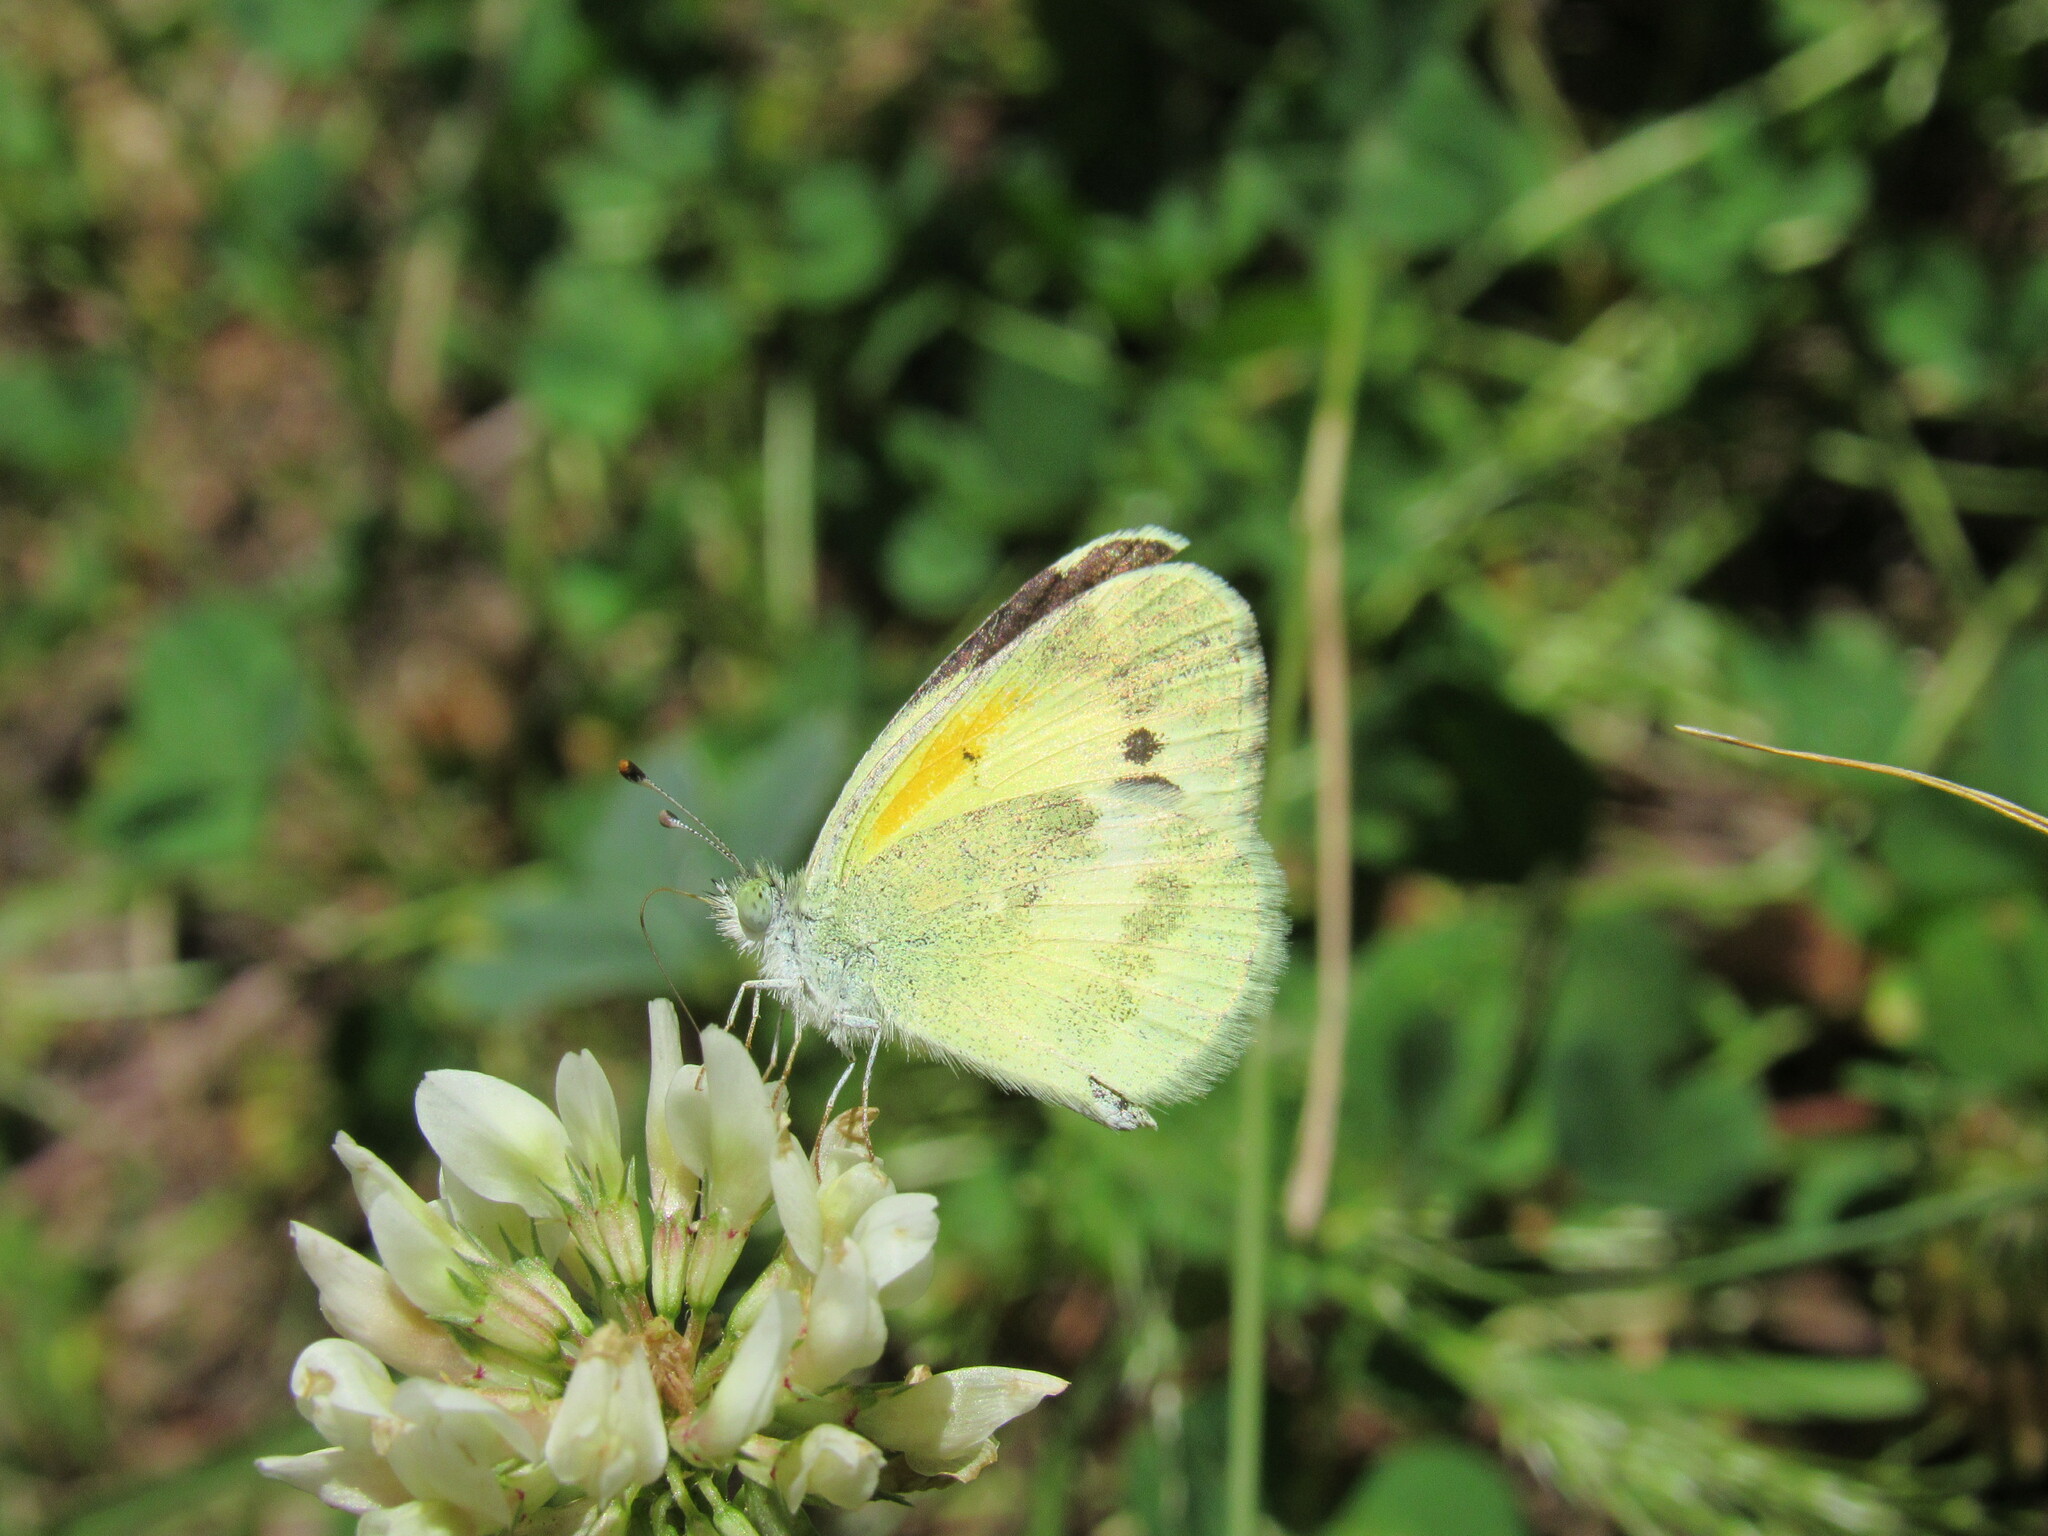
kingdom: Animalia
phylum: Arthropoda
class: Insecta
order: Lepidoptera
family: Pieridae
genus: Nathalis
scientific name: Nathalis iole
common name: Dainty sulphur
